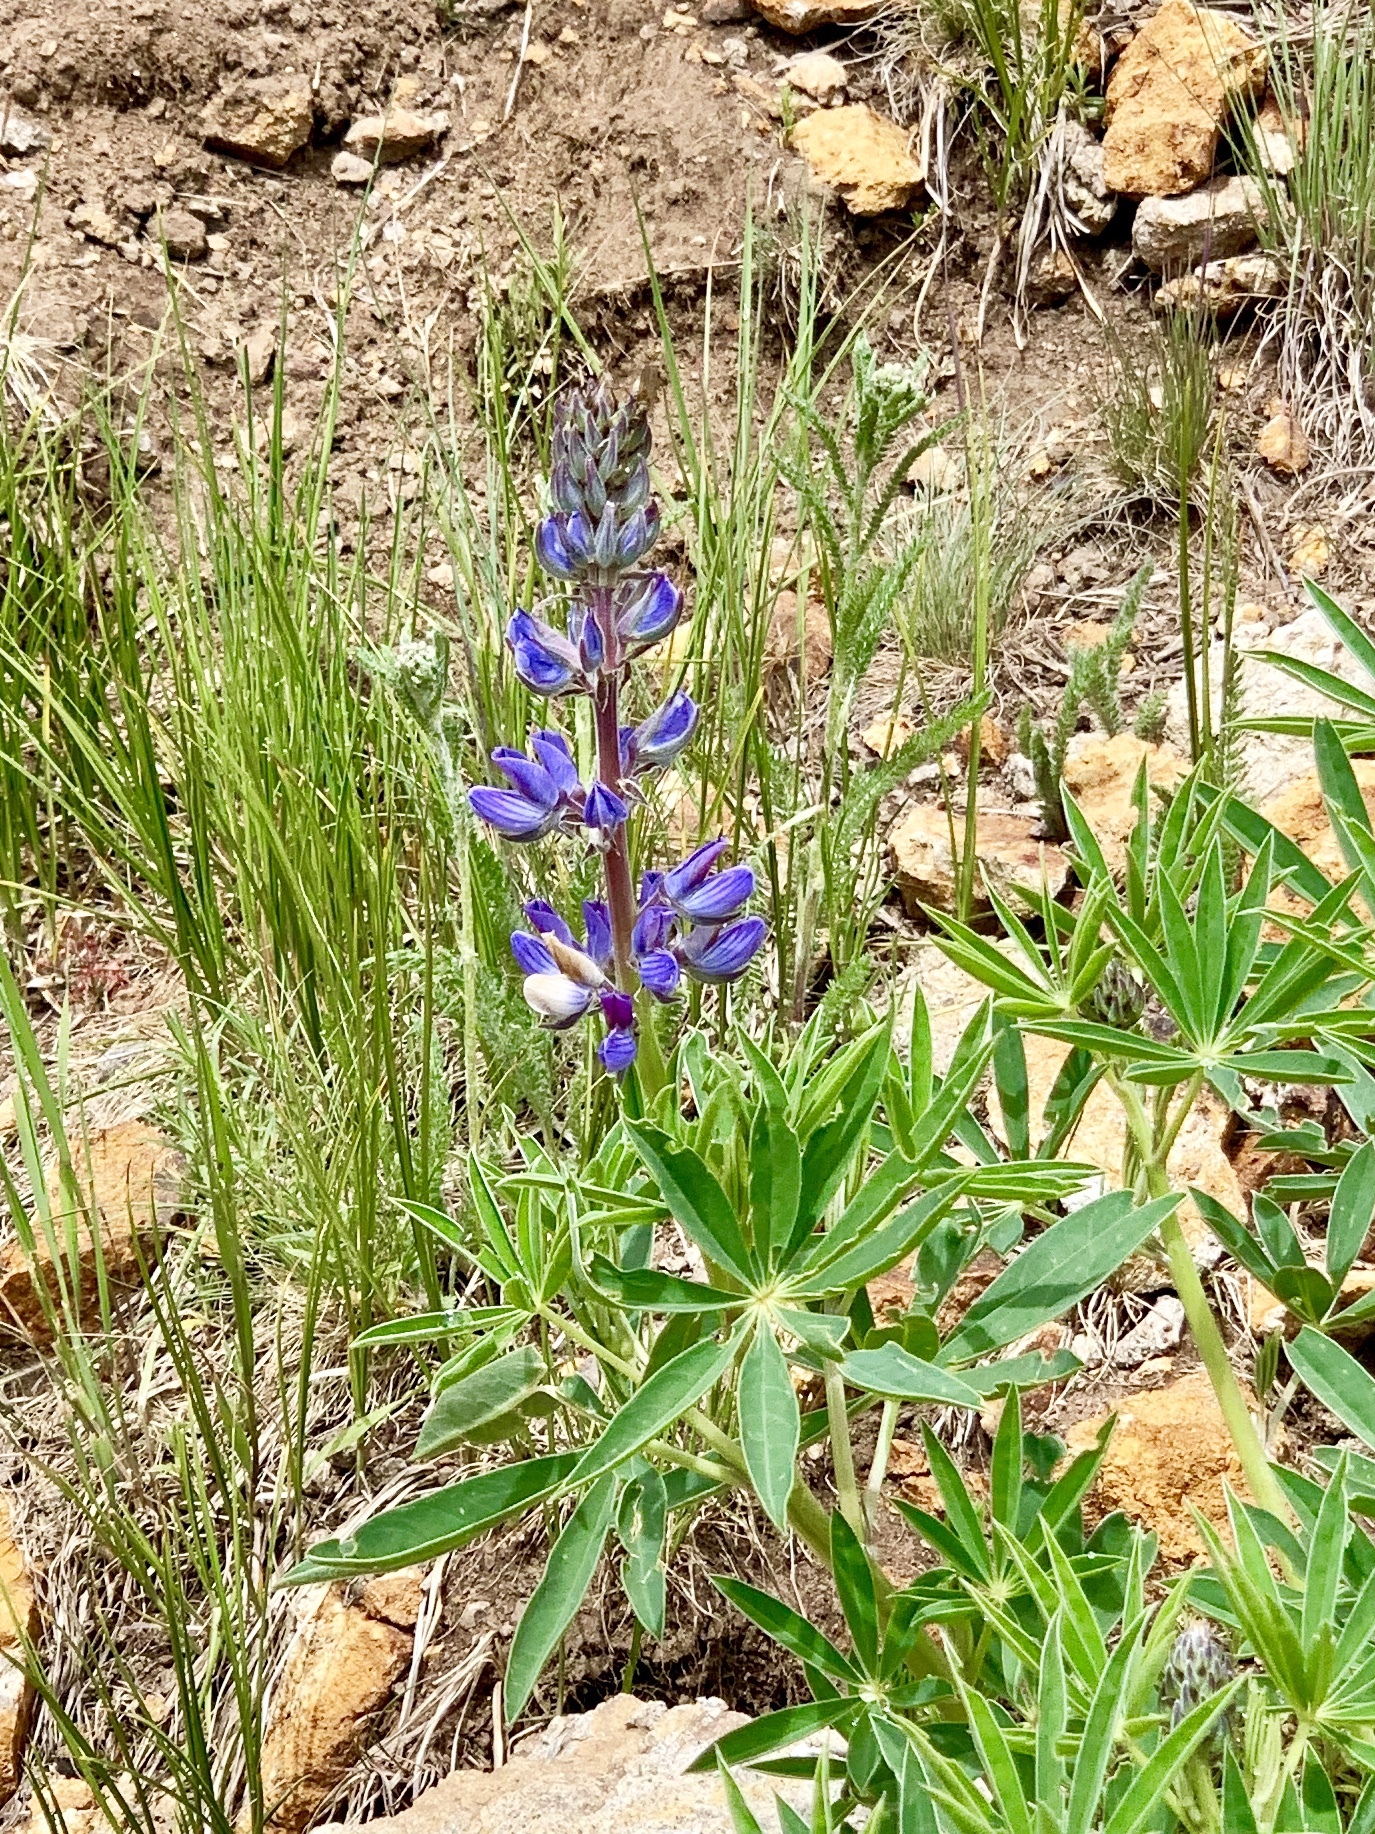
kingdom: Plantae
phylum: Tracheophyta
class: Magnoliopsida
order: Fabales
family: Fabaceae
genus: Lupinus
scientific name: Lupinus sierrae-blancae
